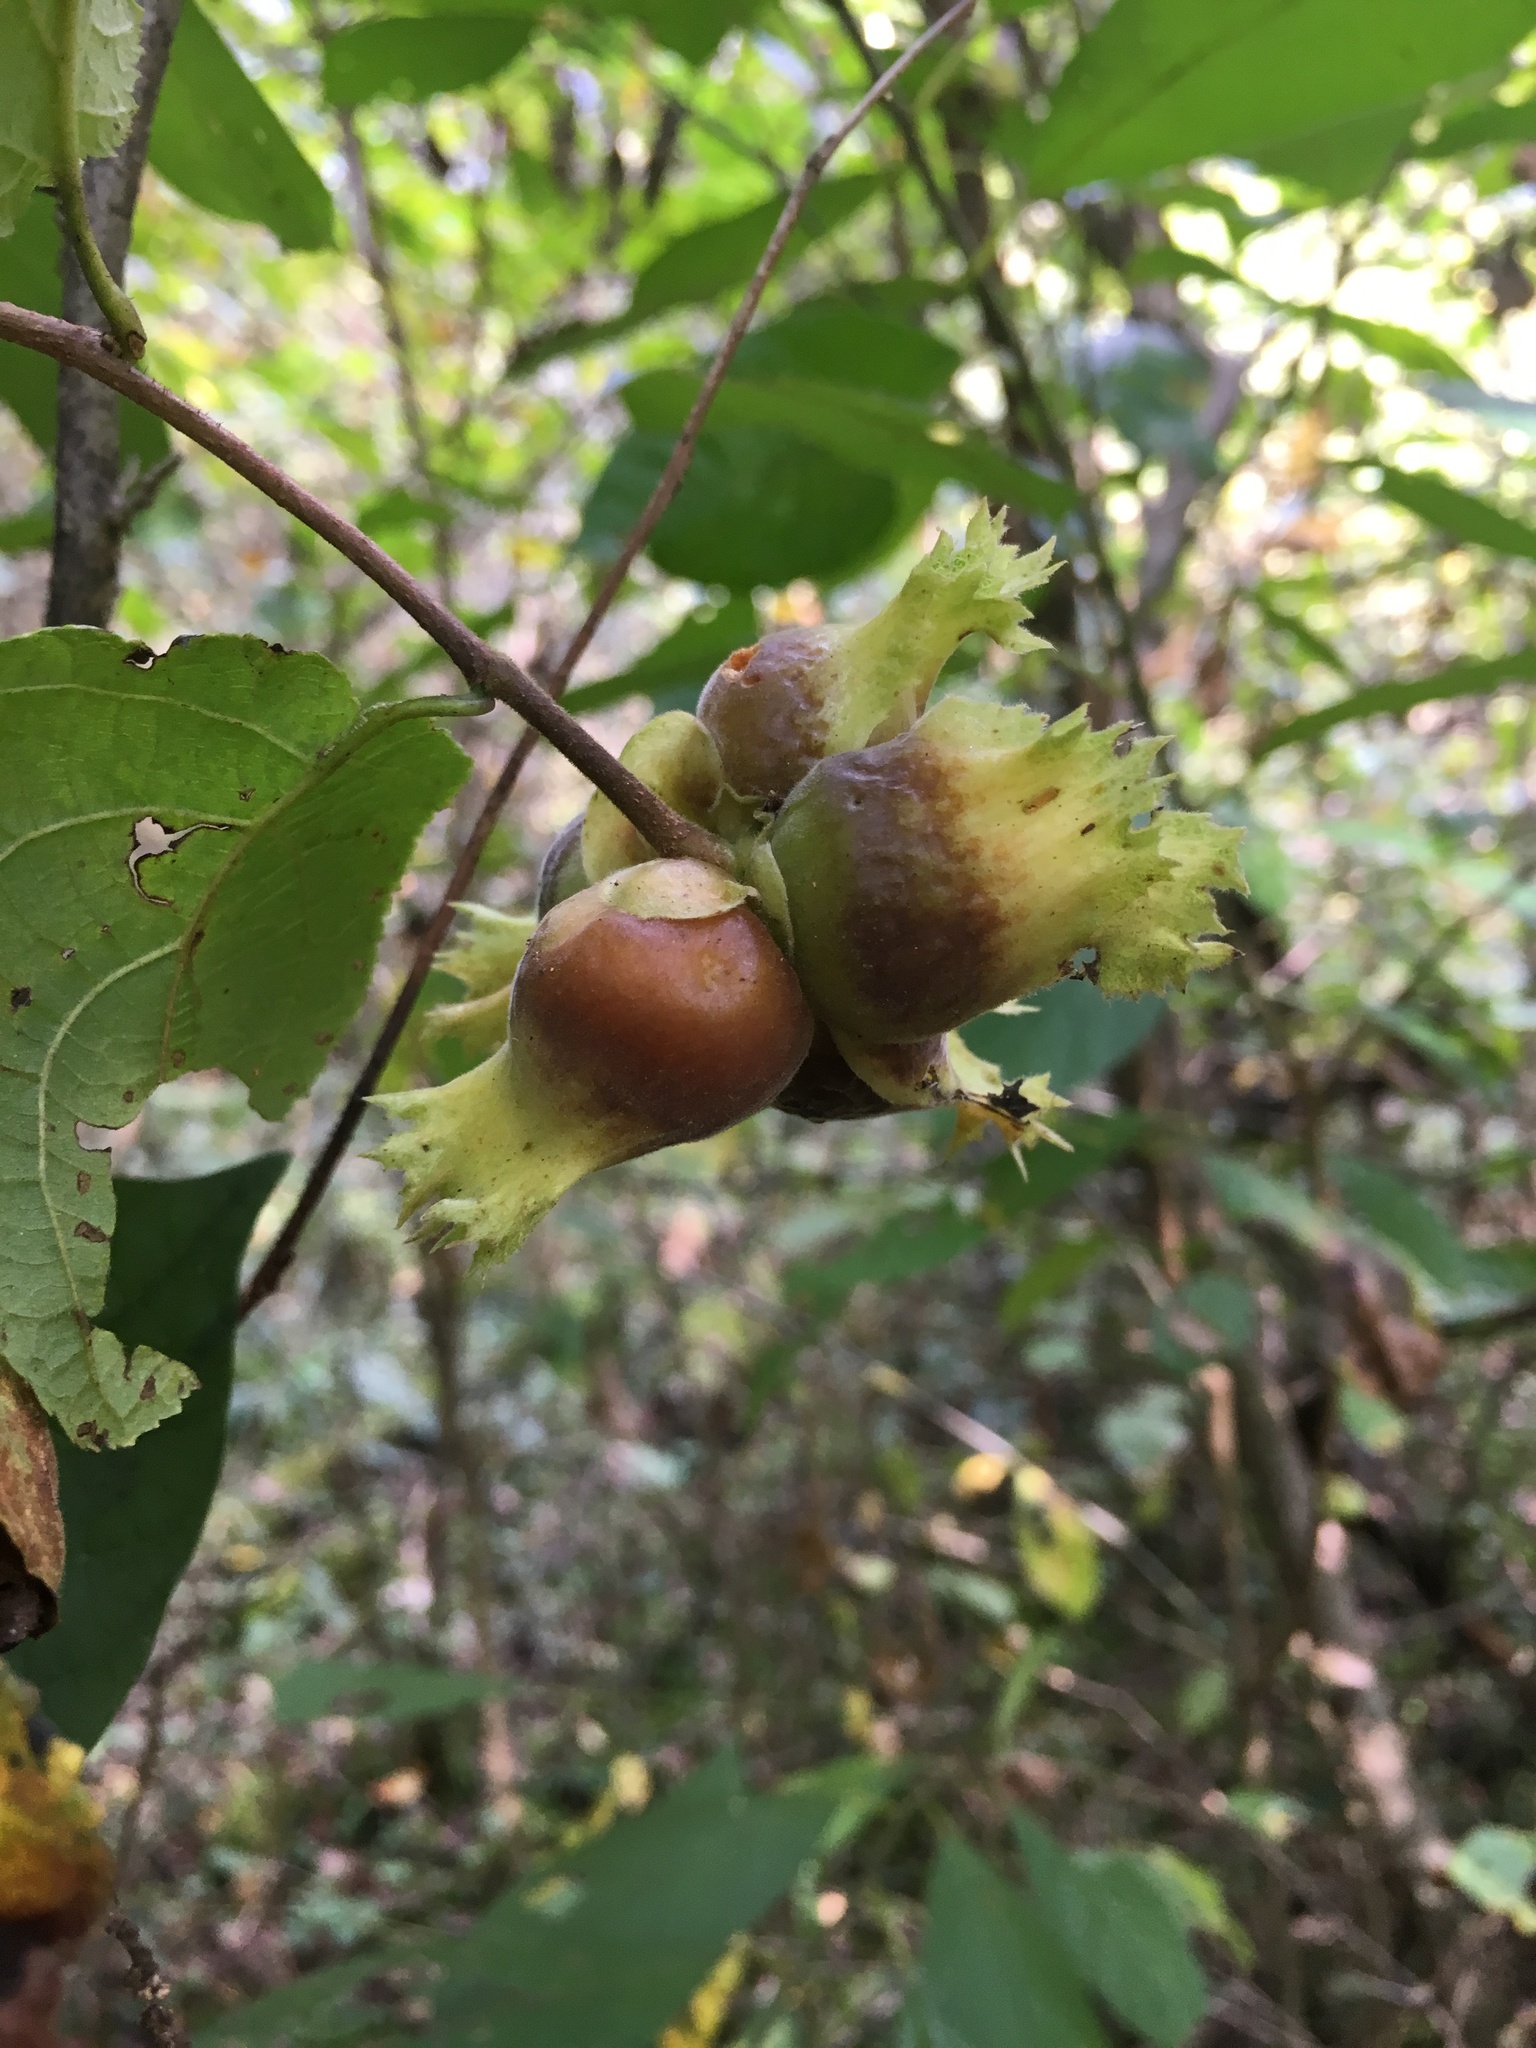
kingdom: Plantae
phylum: Tracheophyta
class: Magnoliopsida
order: Fagales
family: Betulaceae
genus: Corylus
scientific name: Corylus americana
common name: American hazel
